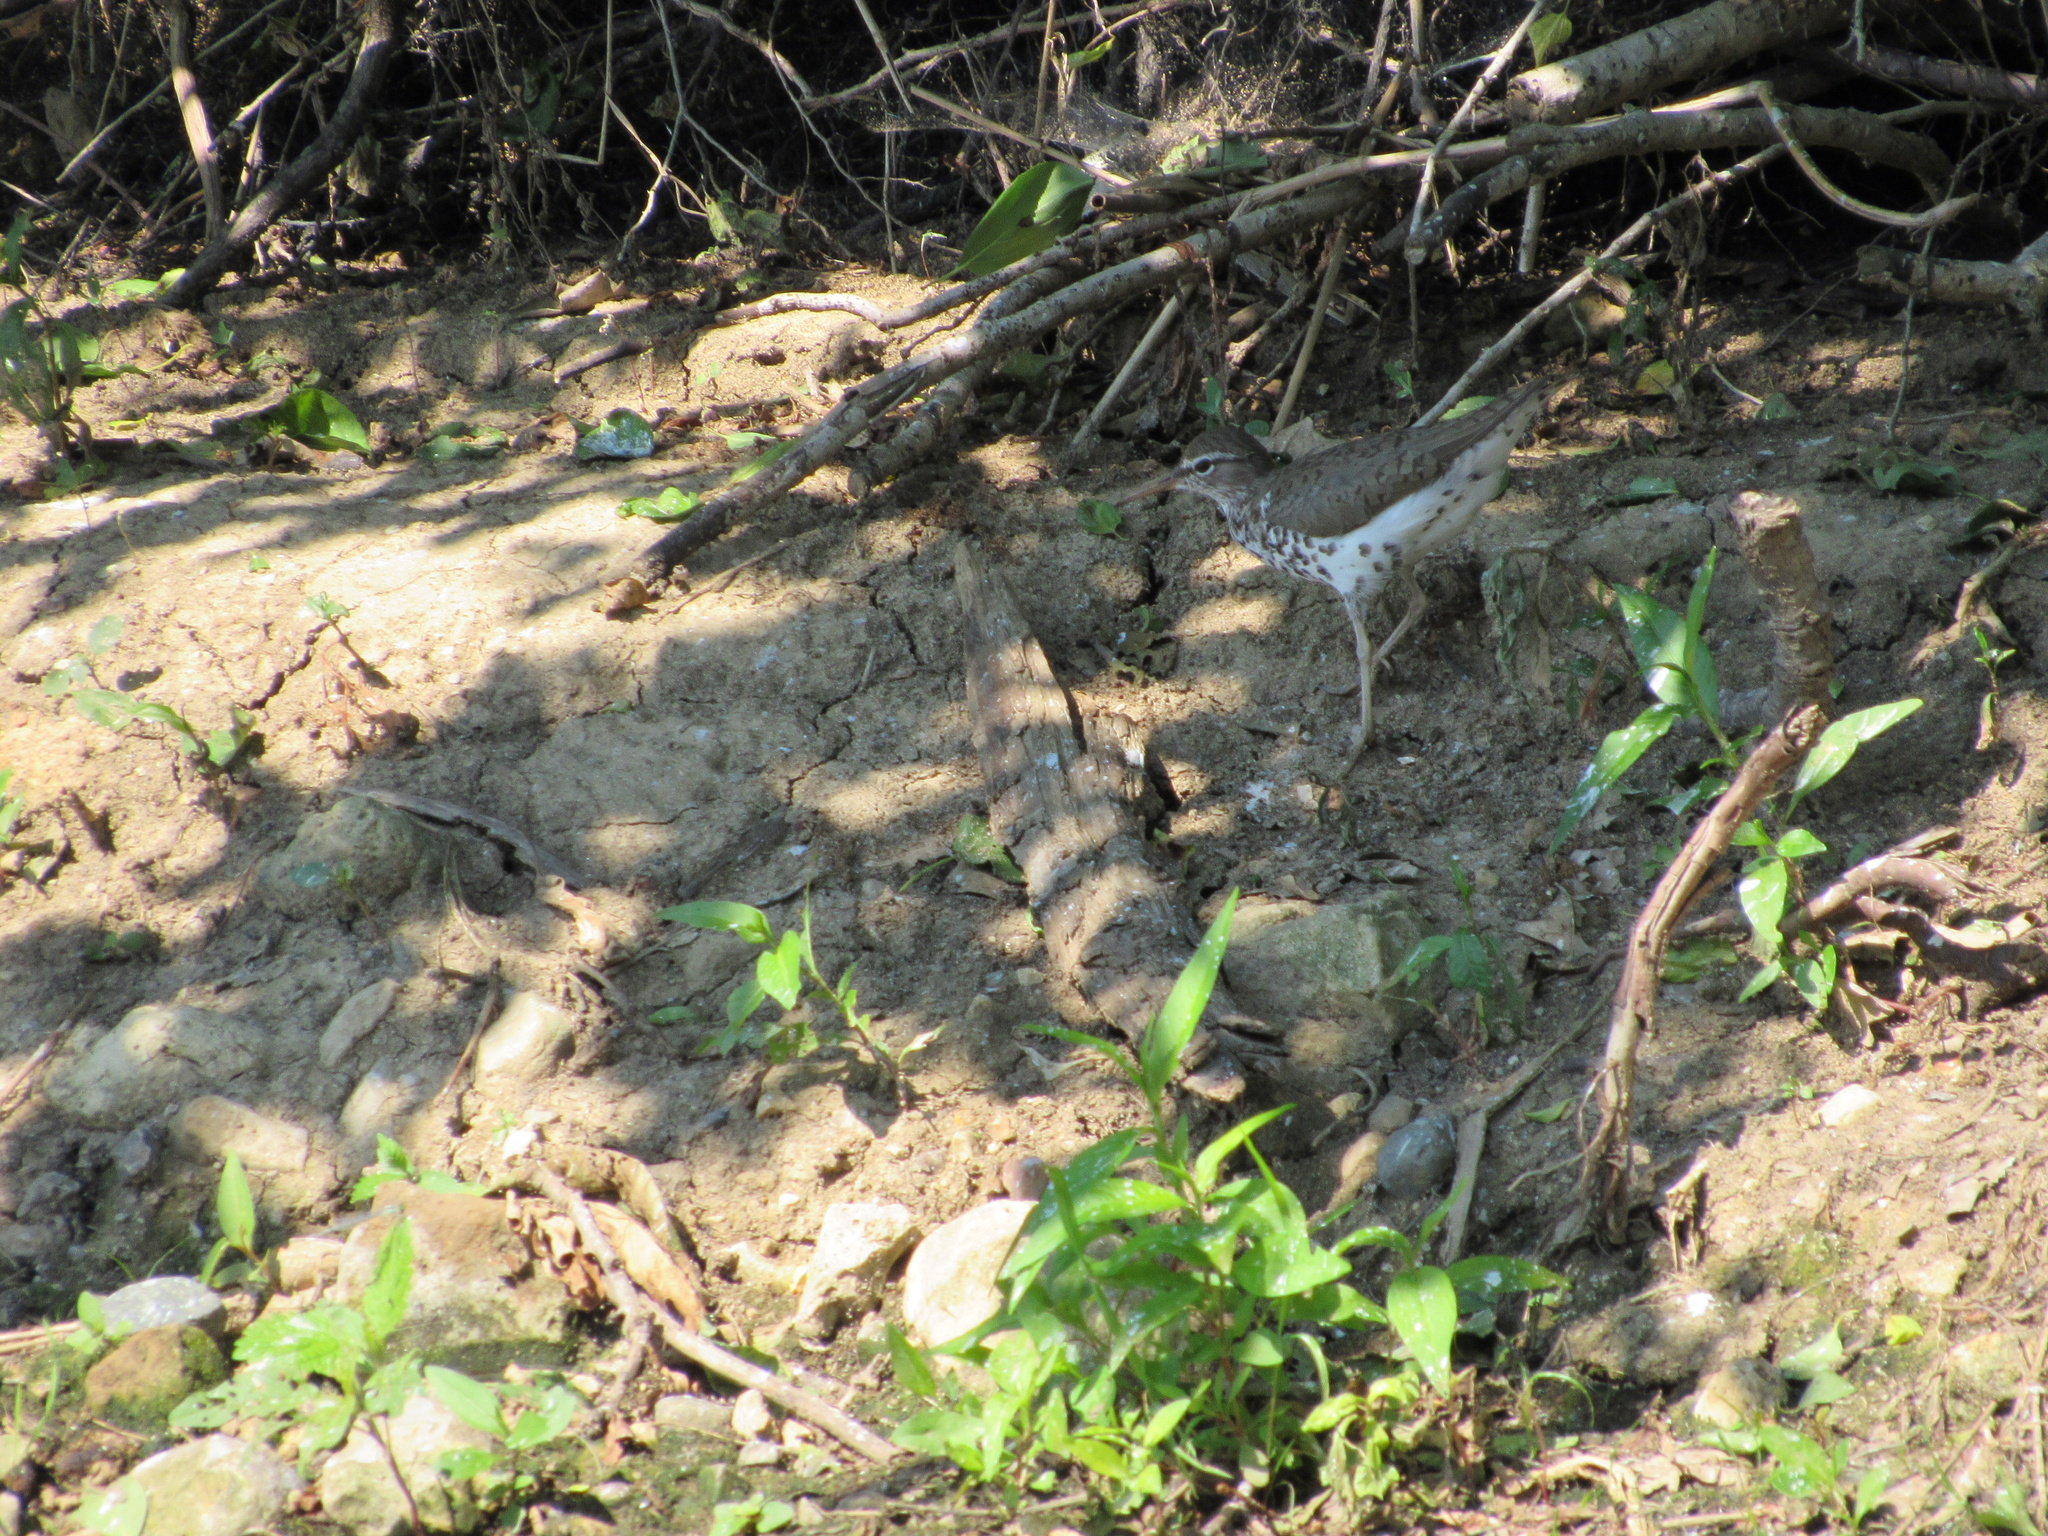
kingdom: Animalia
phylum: Chordata
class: Aves
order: Charadriiformes
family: Scolopacidae
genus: Actitis
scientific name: Actitis macularius
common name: Spotted sandpiper
